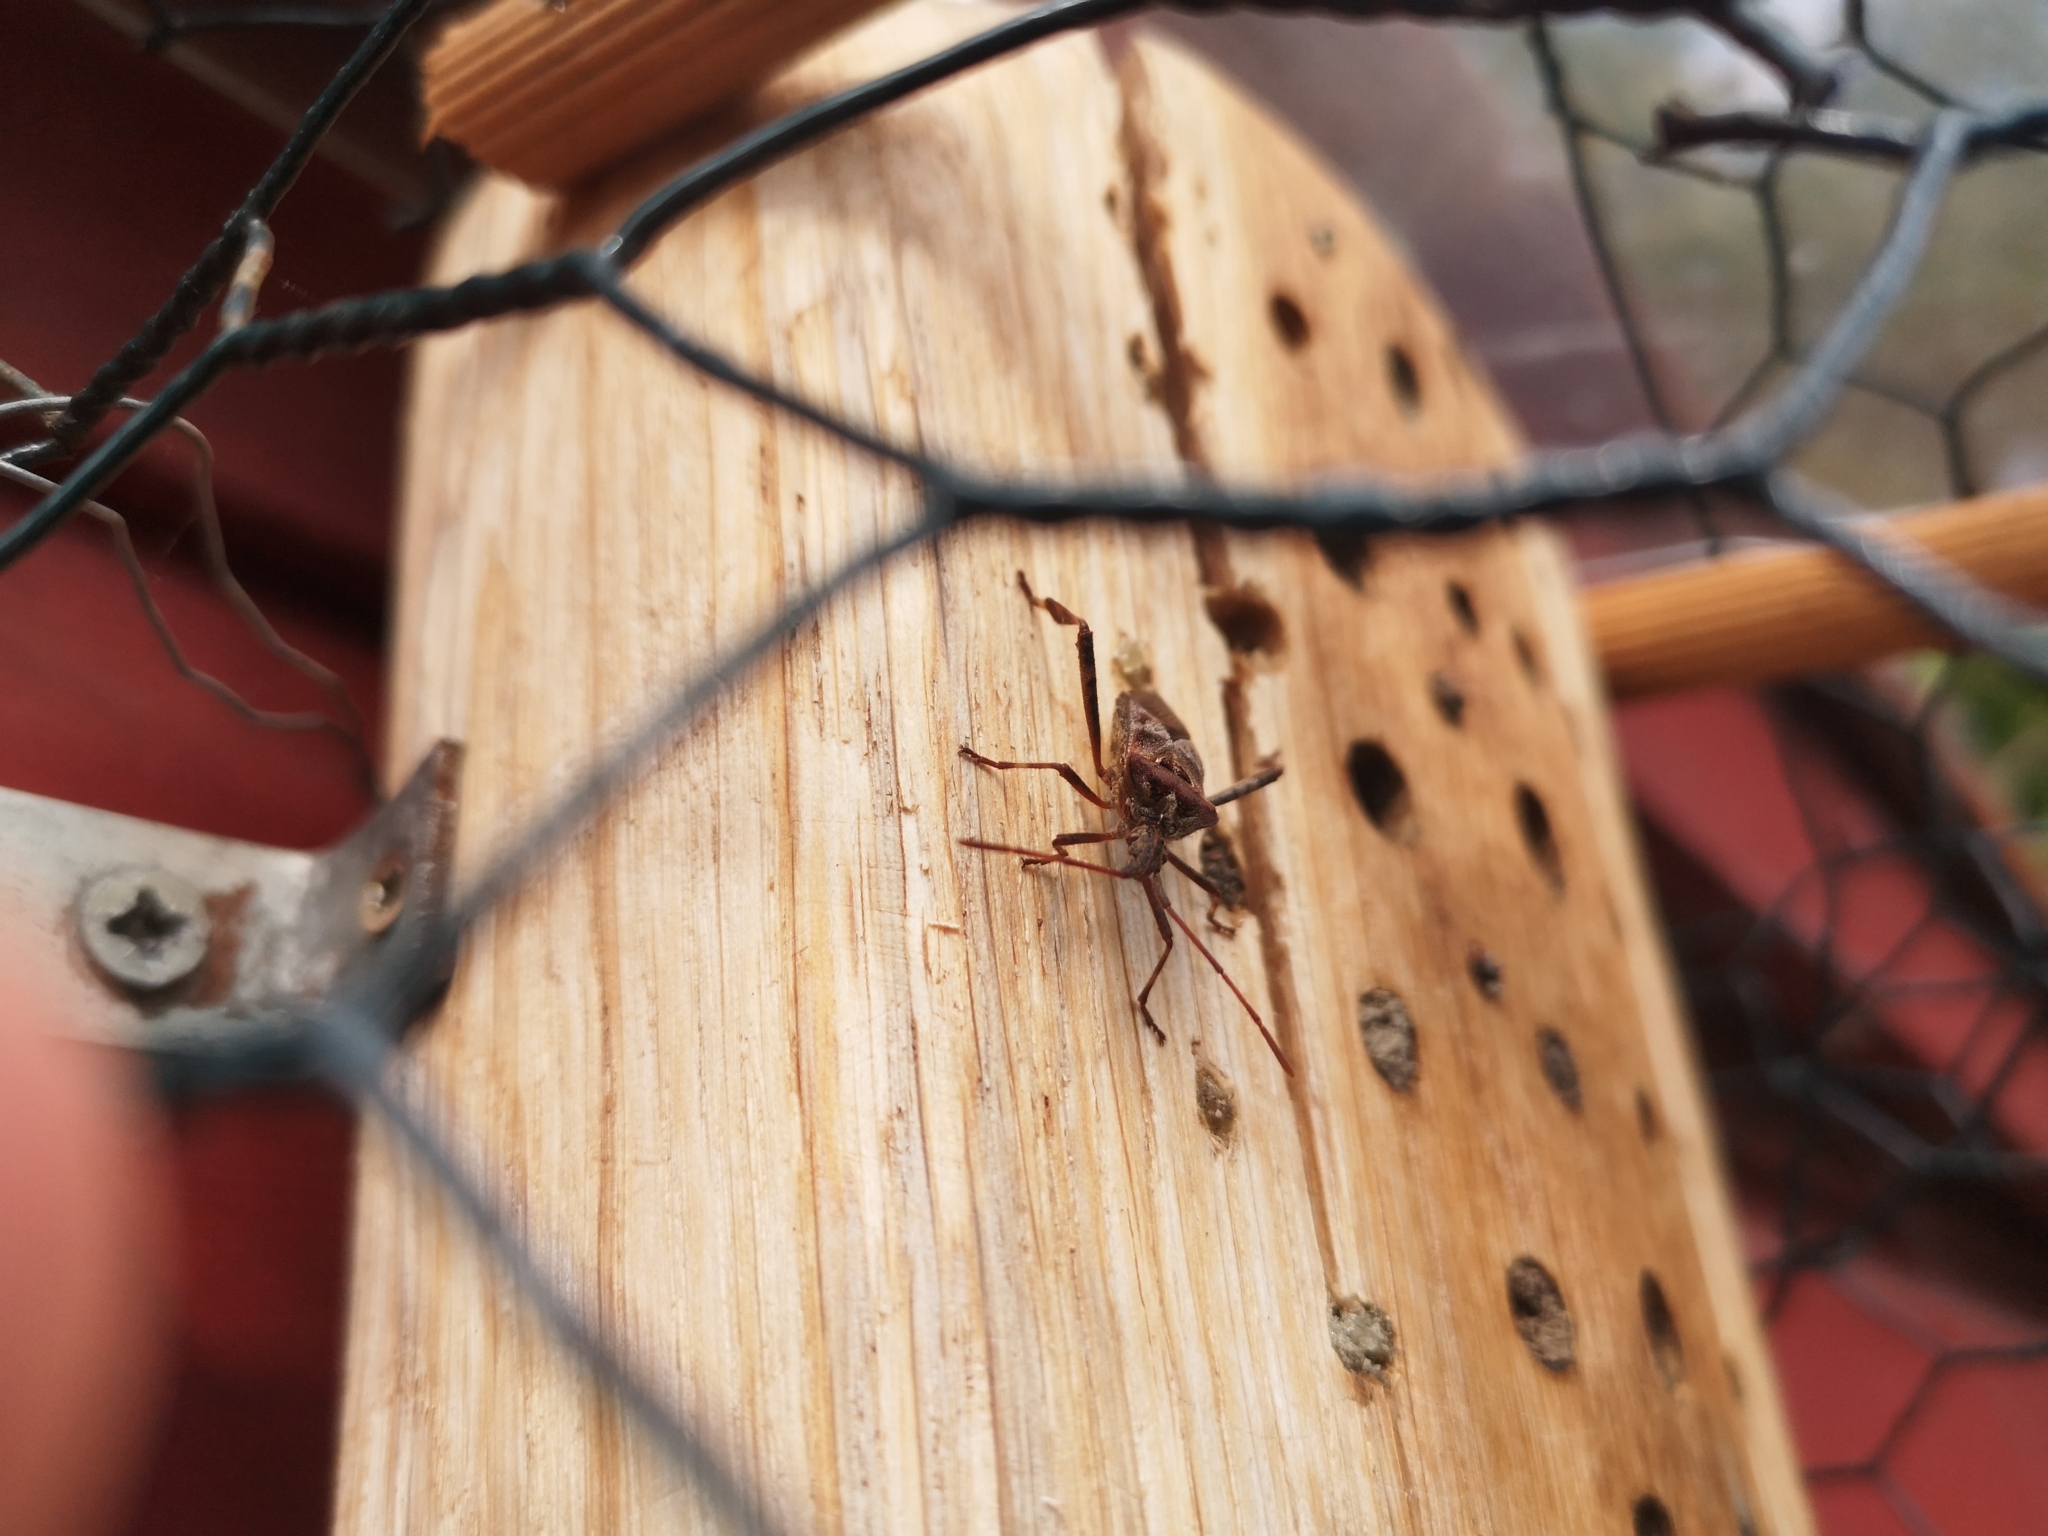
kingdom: Animalia
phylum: Arthropoda
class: Insecta
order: Hemiptera
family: Coreidae
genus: Leptoglossus
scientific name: Leptoglossus occidentalis
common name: Western conifer-seed bug
